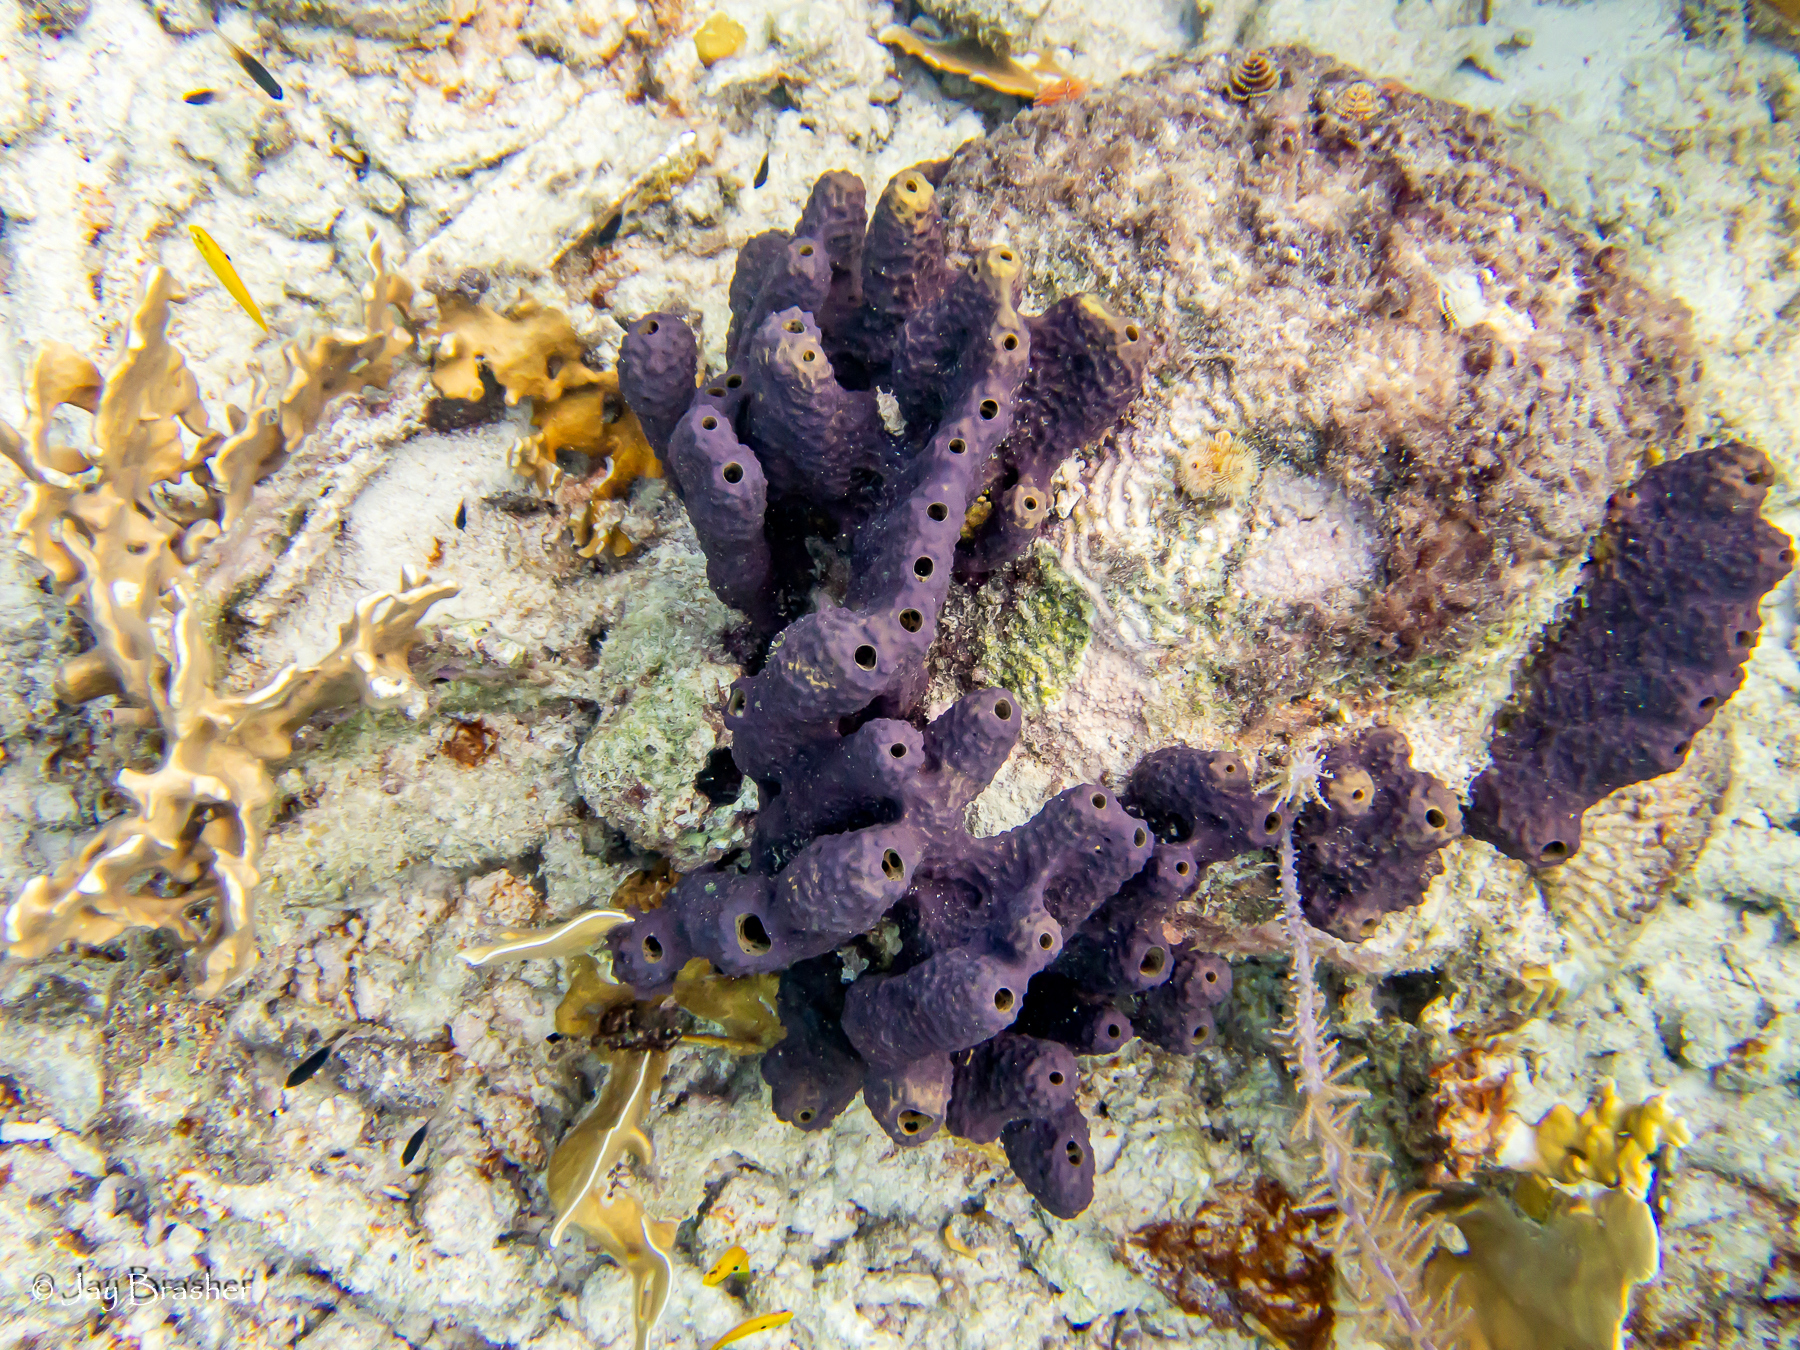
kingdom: Animalia
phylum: Porifera
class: Demospongiae
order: Verongiida
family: Aplysinidae
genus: Aiolochroia
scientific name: Aiolochroia crassa
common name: Branching tube sponge
